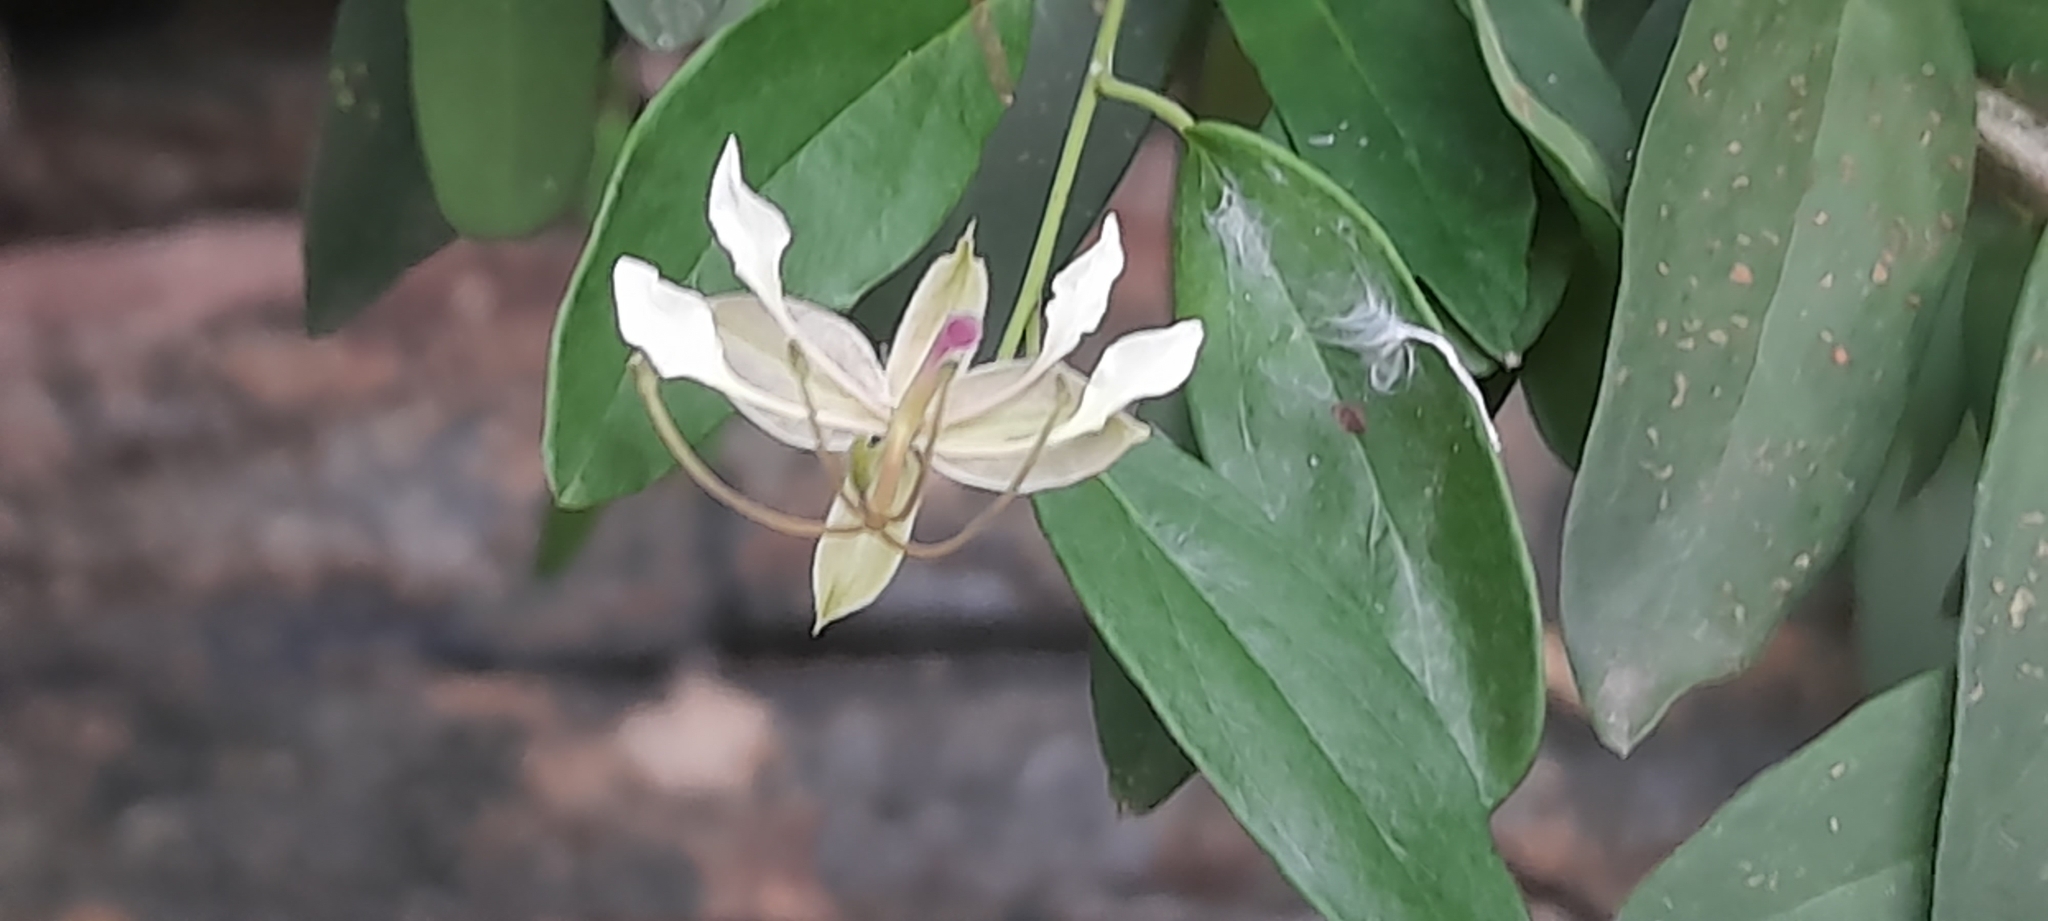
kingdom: Plantae
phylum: Tracheophyta
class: Magnoliopsida
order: Brassicales
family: Capparaceae
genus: Cadaba
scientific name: Cadaba fruticosa
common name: Indian cadaba
